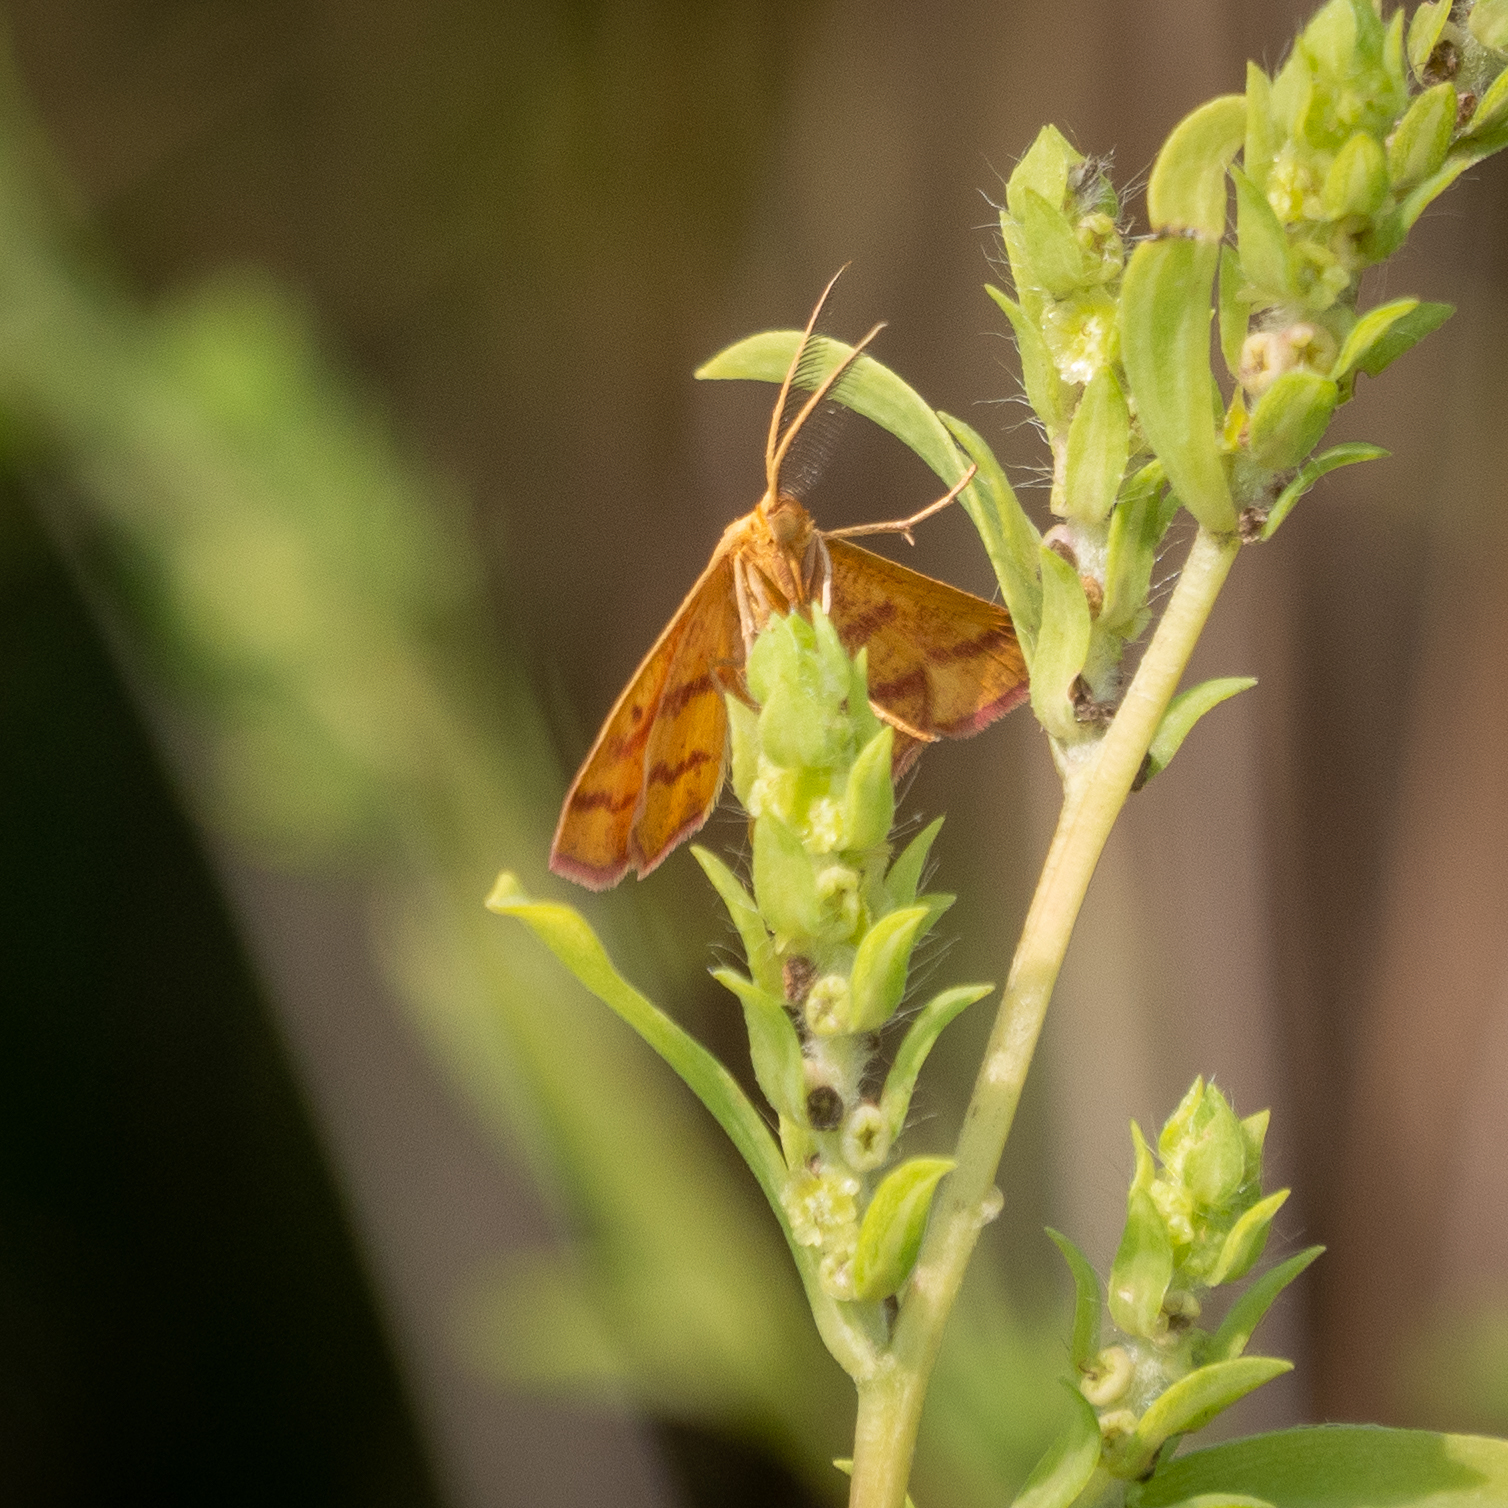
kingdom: Animalia
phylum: Arthropoda
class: Insecta
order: Lepidoptera
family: Geometridae
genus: Haematopis
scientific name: Haematopis grataria
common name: Chickweed geometer
